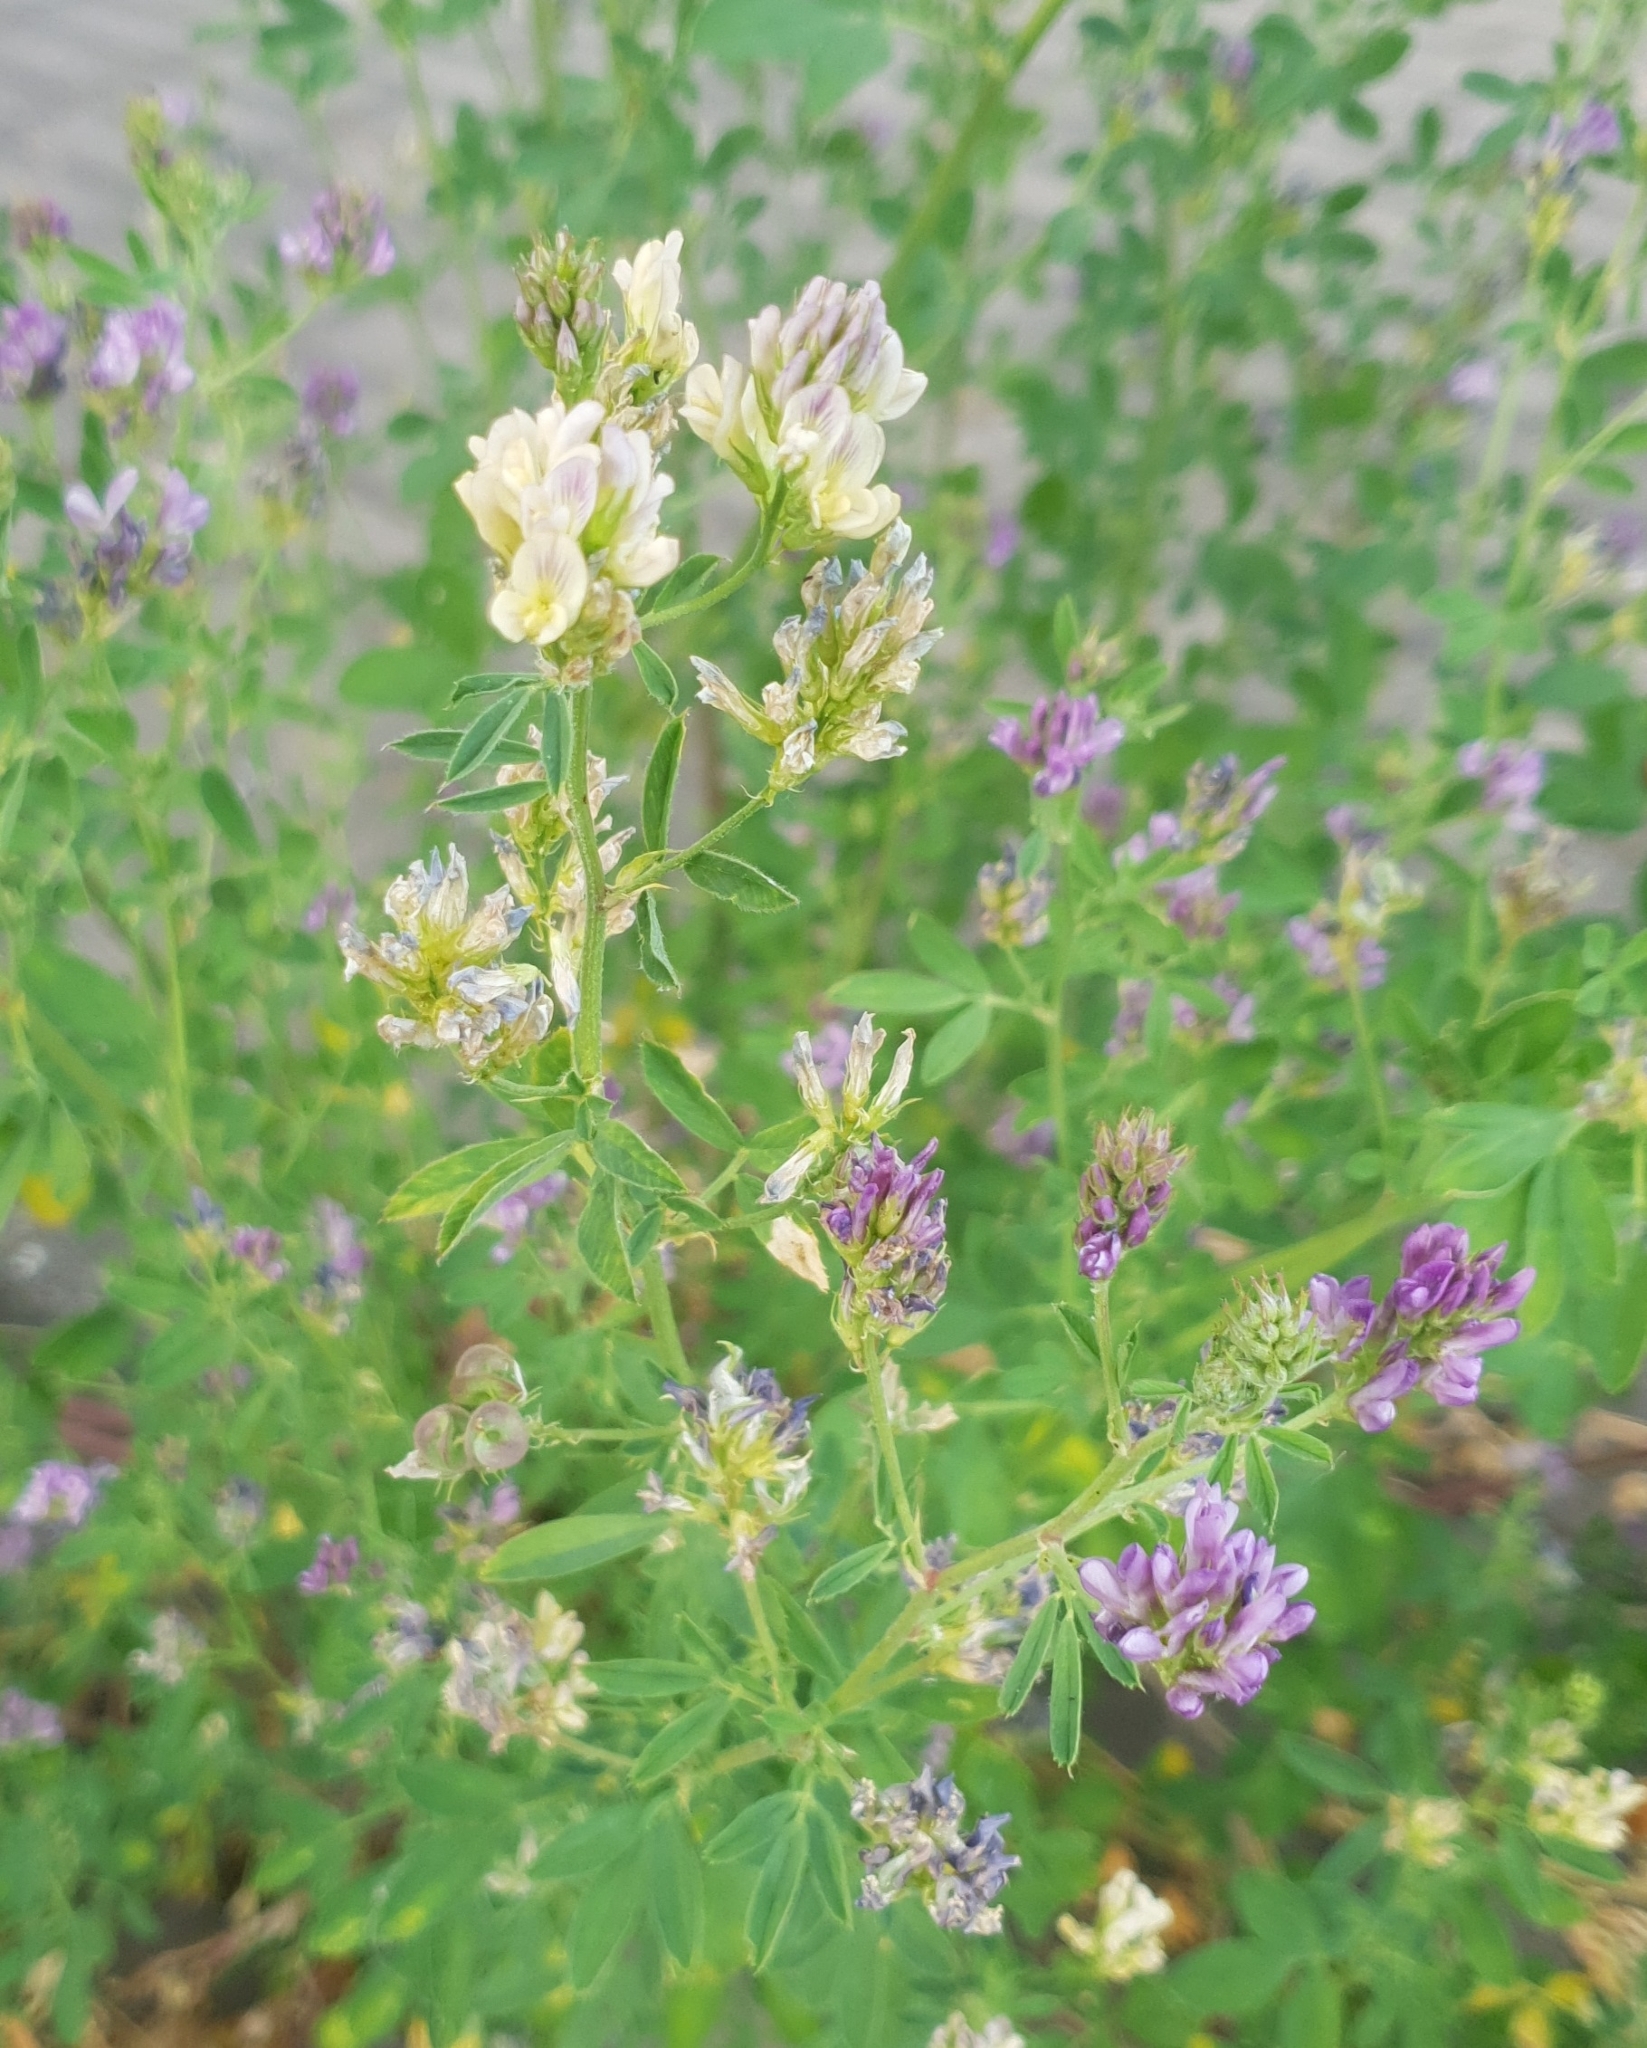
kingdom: Plantae
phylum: Tracheophyta
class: Magnoliopsida
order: Fabales
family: Fabaceae
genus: Medicago
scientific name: Medicago varia
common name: Sand lucerne
